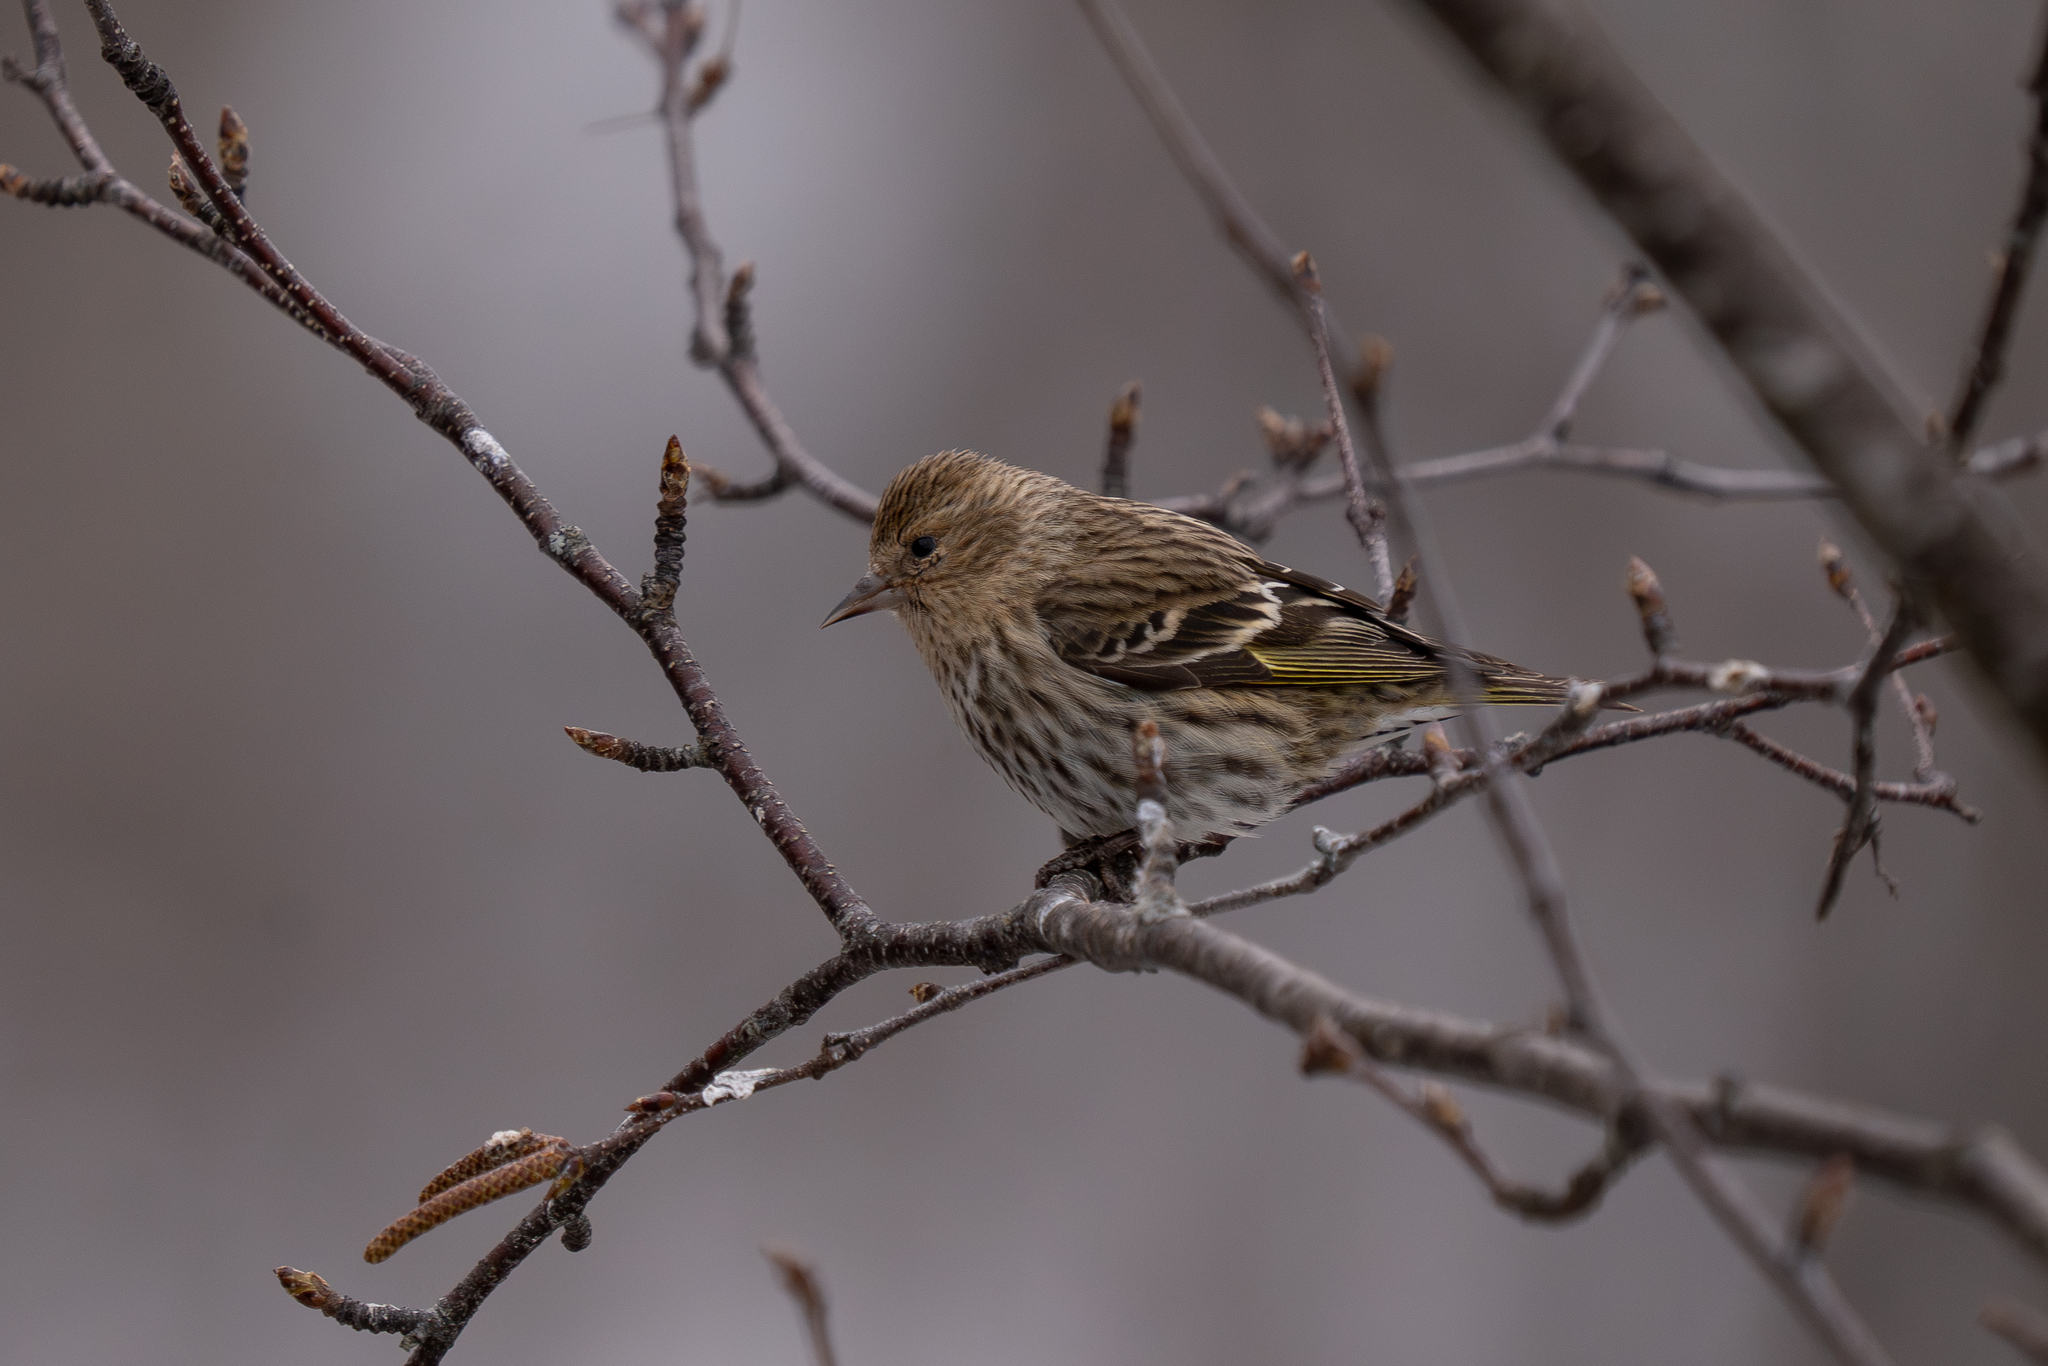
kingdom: Animalia
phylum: Chordata
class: Aves
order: Passeriformes
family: Fringillidae
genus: Spinus
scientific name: Spinus pinus
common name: Pine siskin
